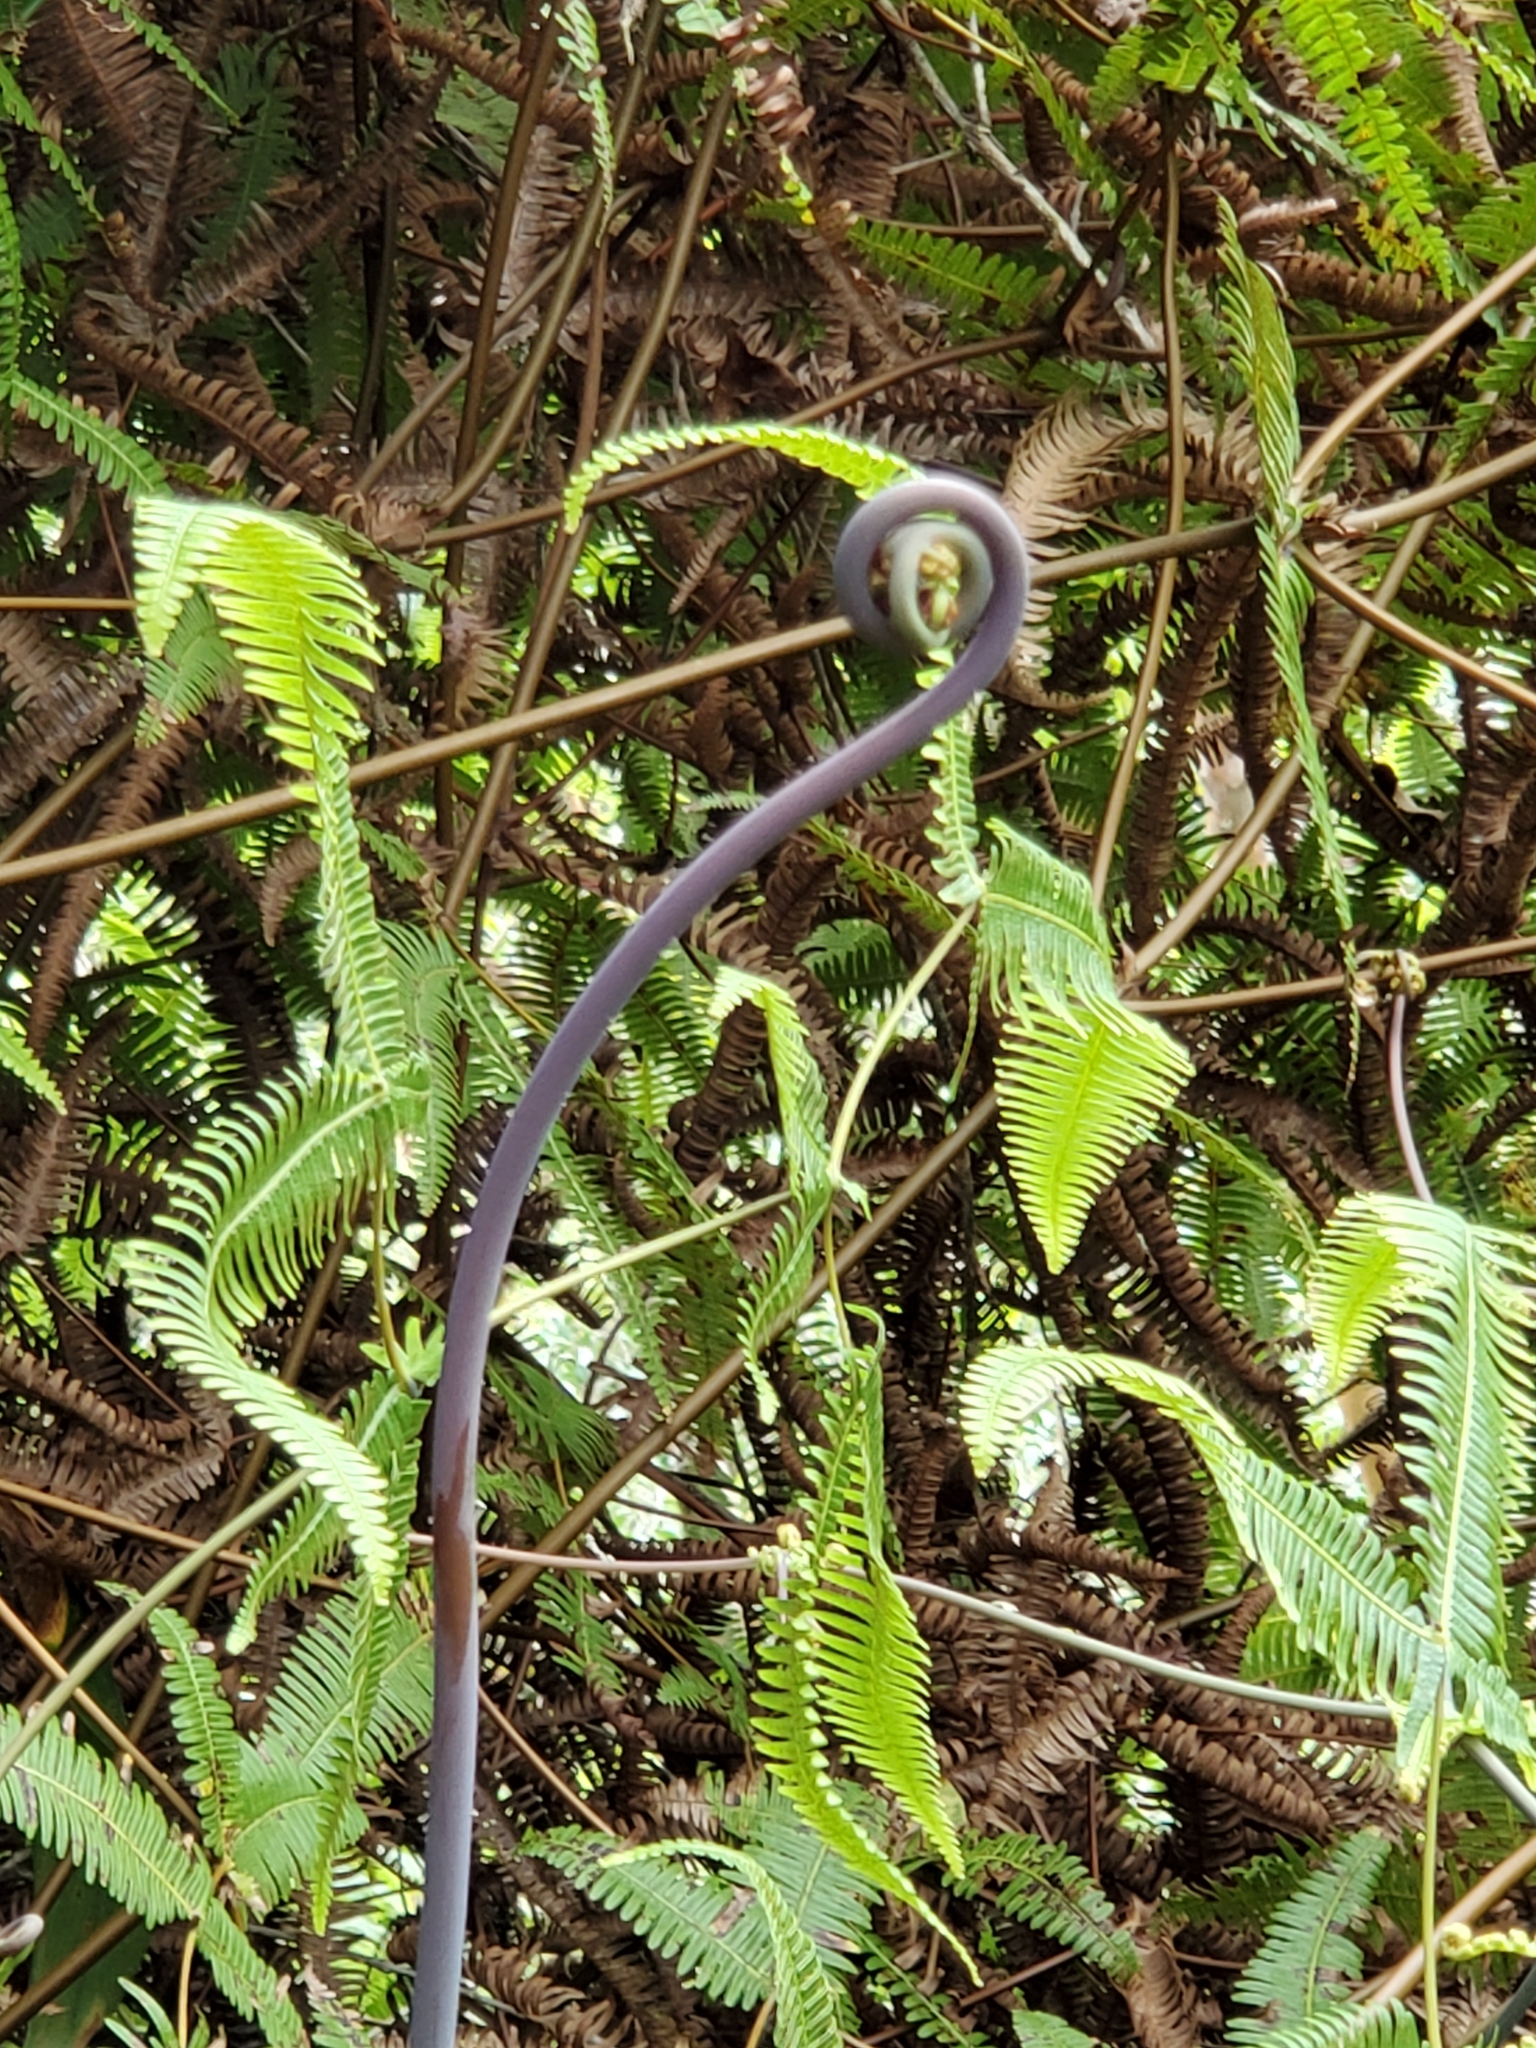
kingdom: Plantae
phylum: Tracheophyta
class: Polypodiopsida
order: Gleicheniales
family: Gleicheniaceae
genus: Dicranopteris
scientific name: Dicranopteris linearis
